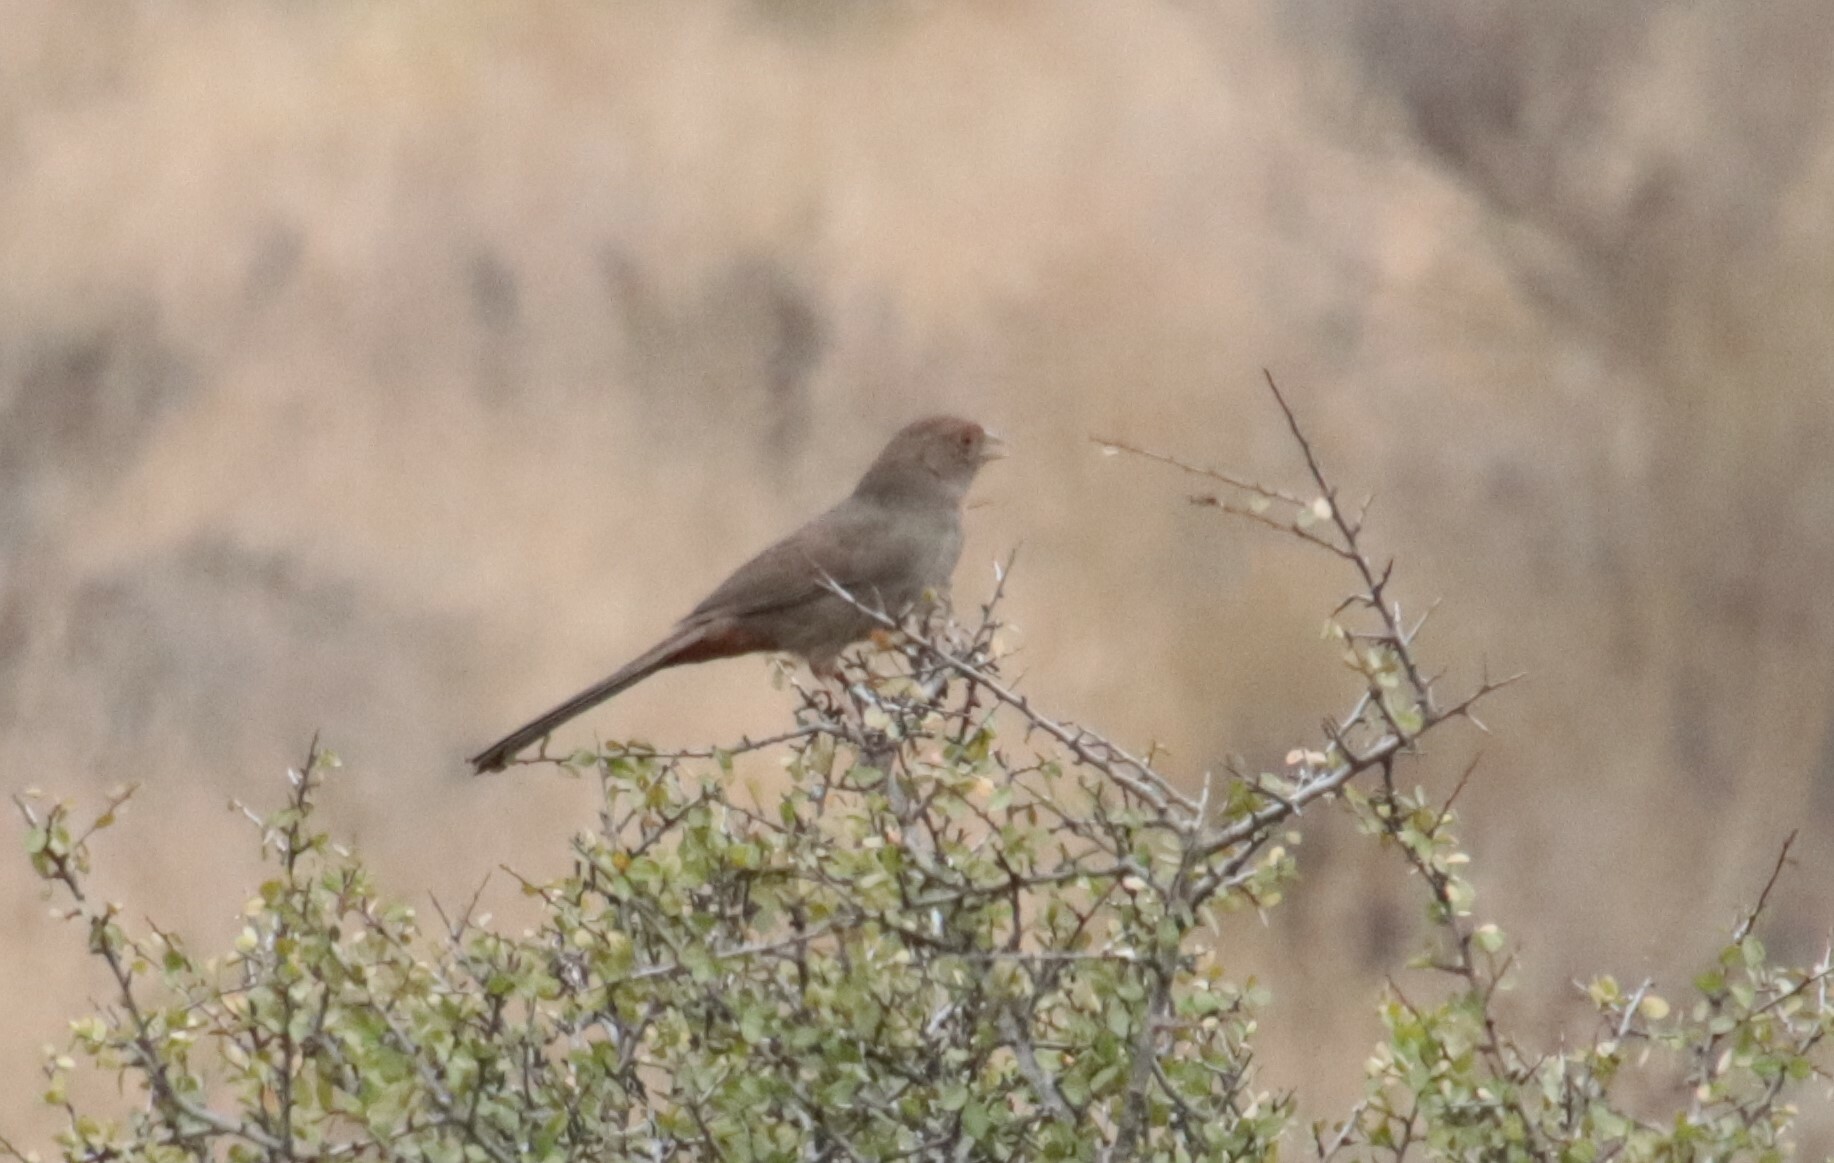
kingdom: Animalia
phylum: Chordata
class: Aves
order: Passeriformes
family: Passerellidae
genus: Melozone
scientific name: Melozone crissalis
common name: California towhee
